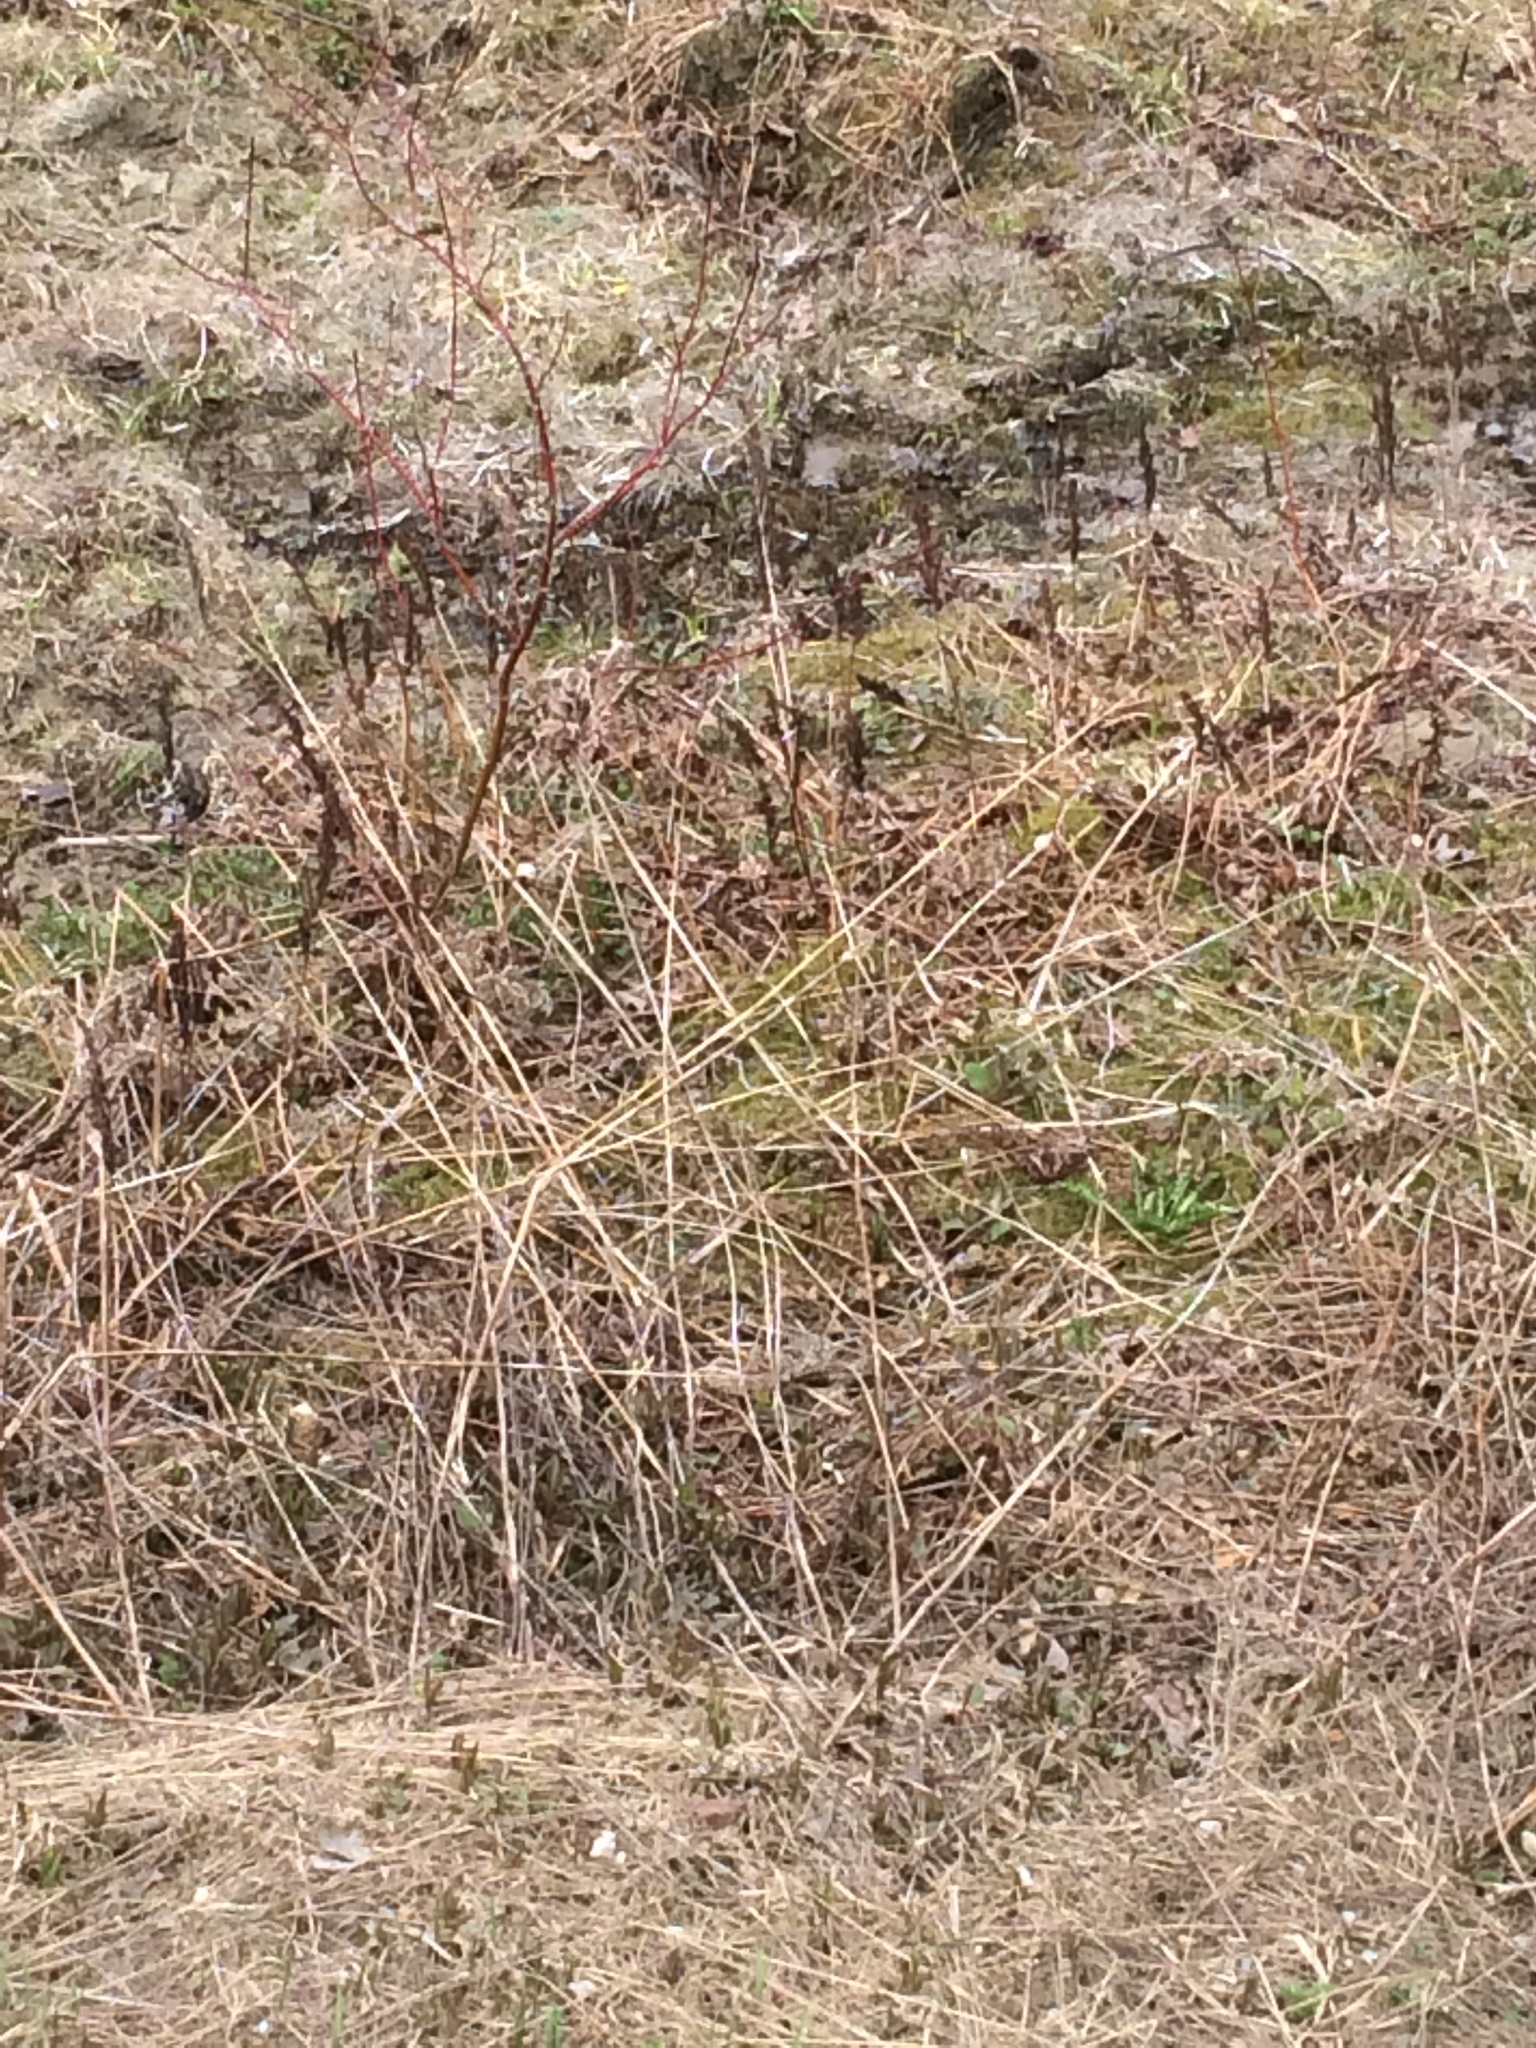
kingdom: Plantae
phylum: Tracheophyta
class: Polypodiopsida
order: Polypodiales
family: Onocleaceae
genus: Onoclea
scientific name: Onoclea sensibilis
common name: Sensitive fern
